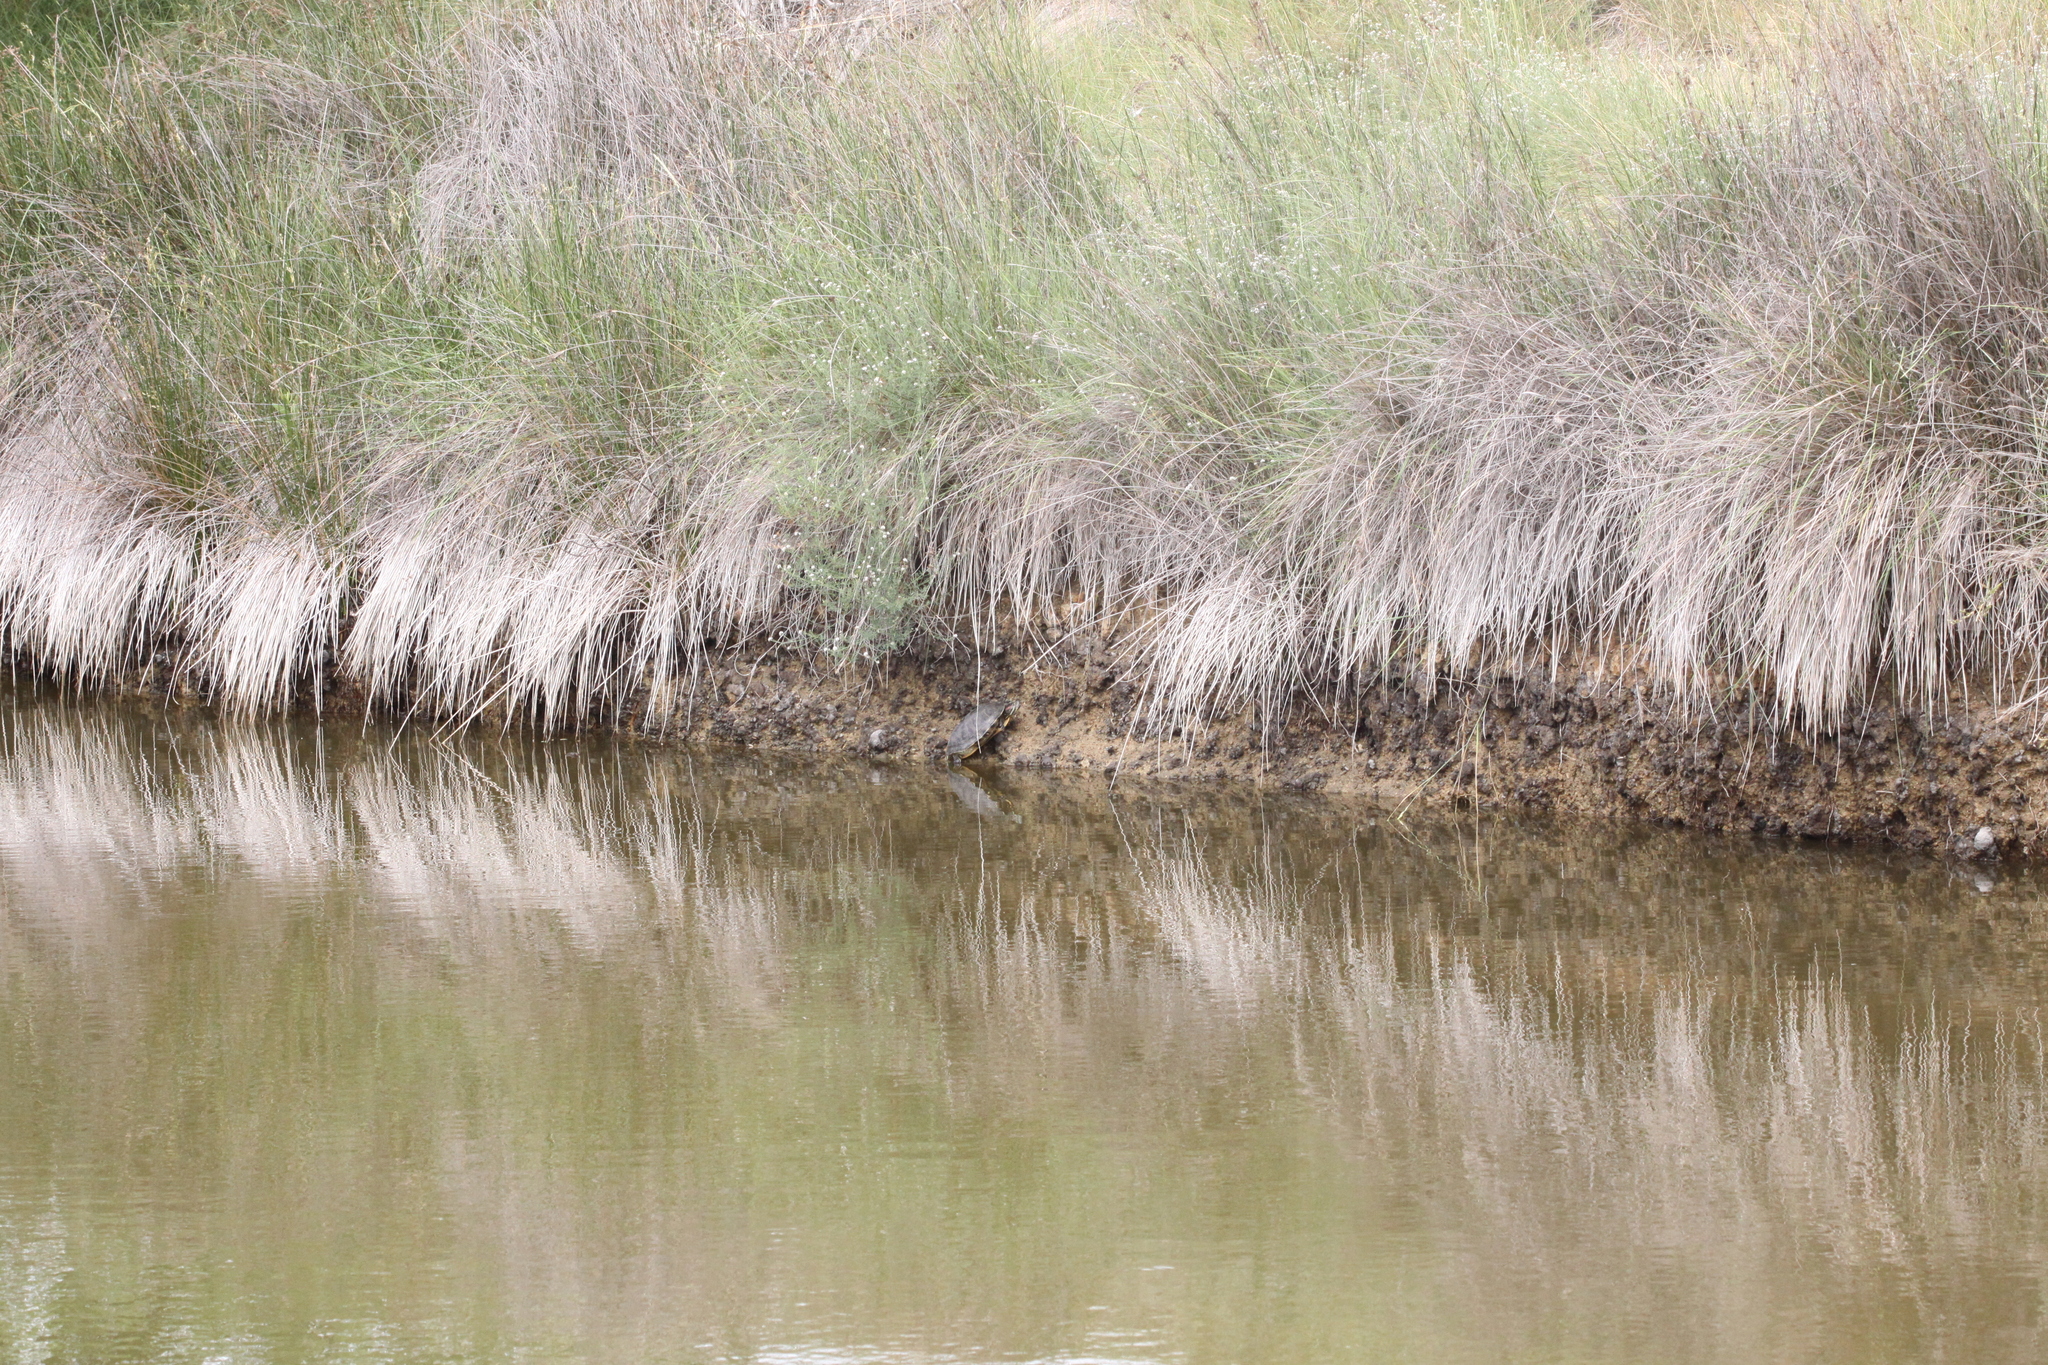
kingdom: Animalia
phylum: Chordata
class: Testudines
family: Emydidae
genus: Trachemys
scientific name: Trachemys scripta
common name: Slider
